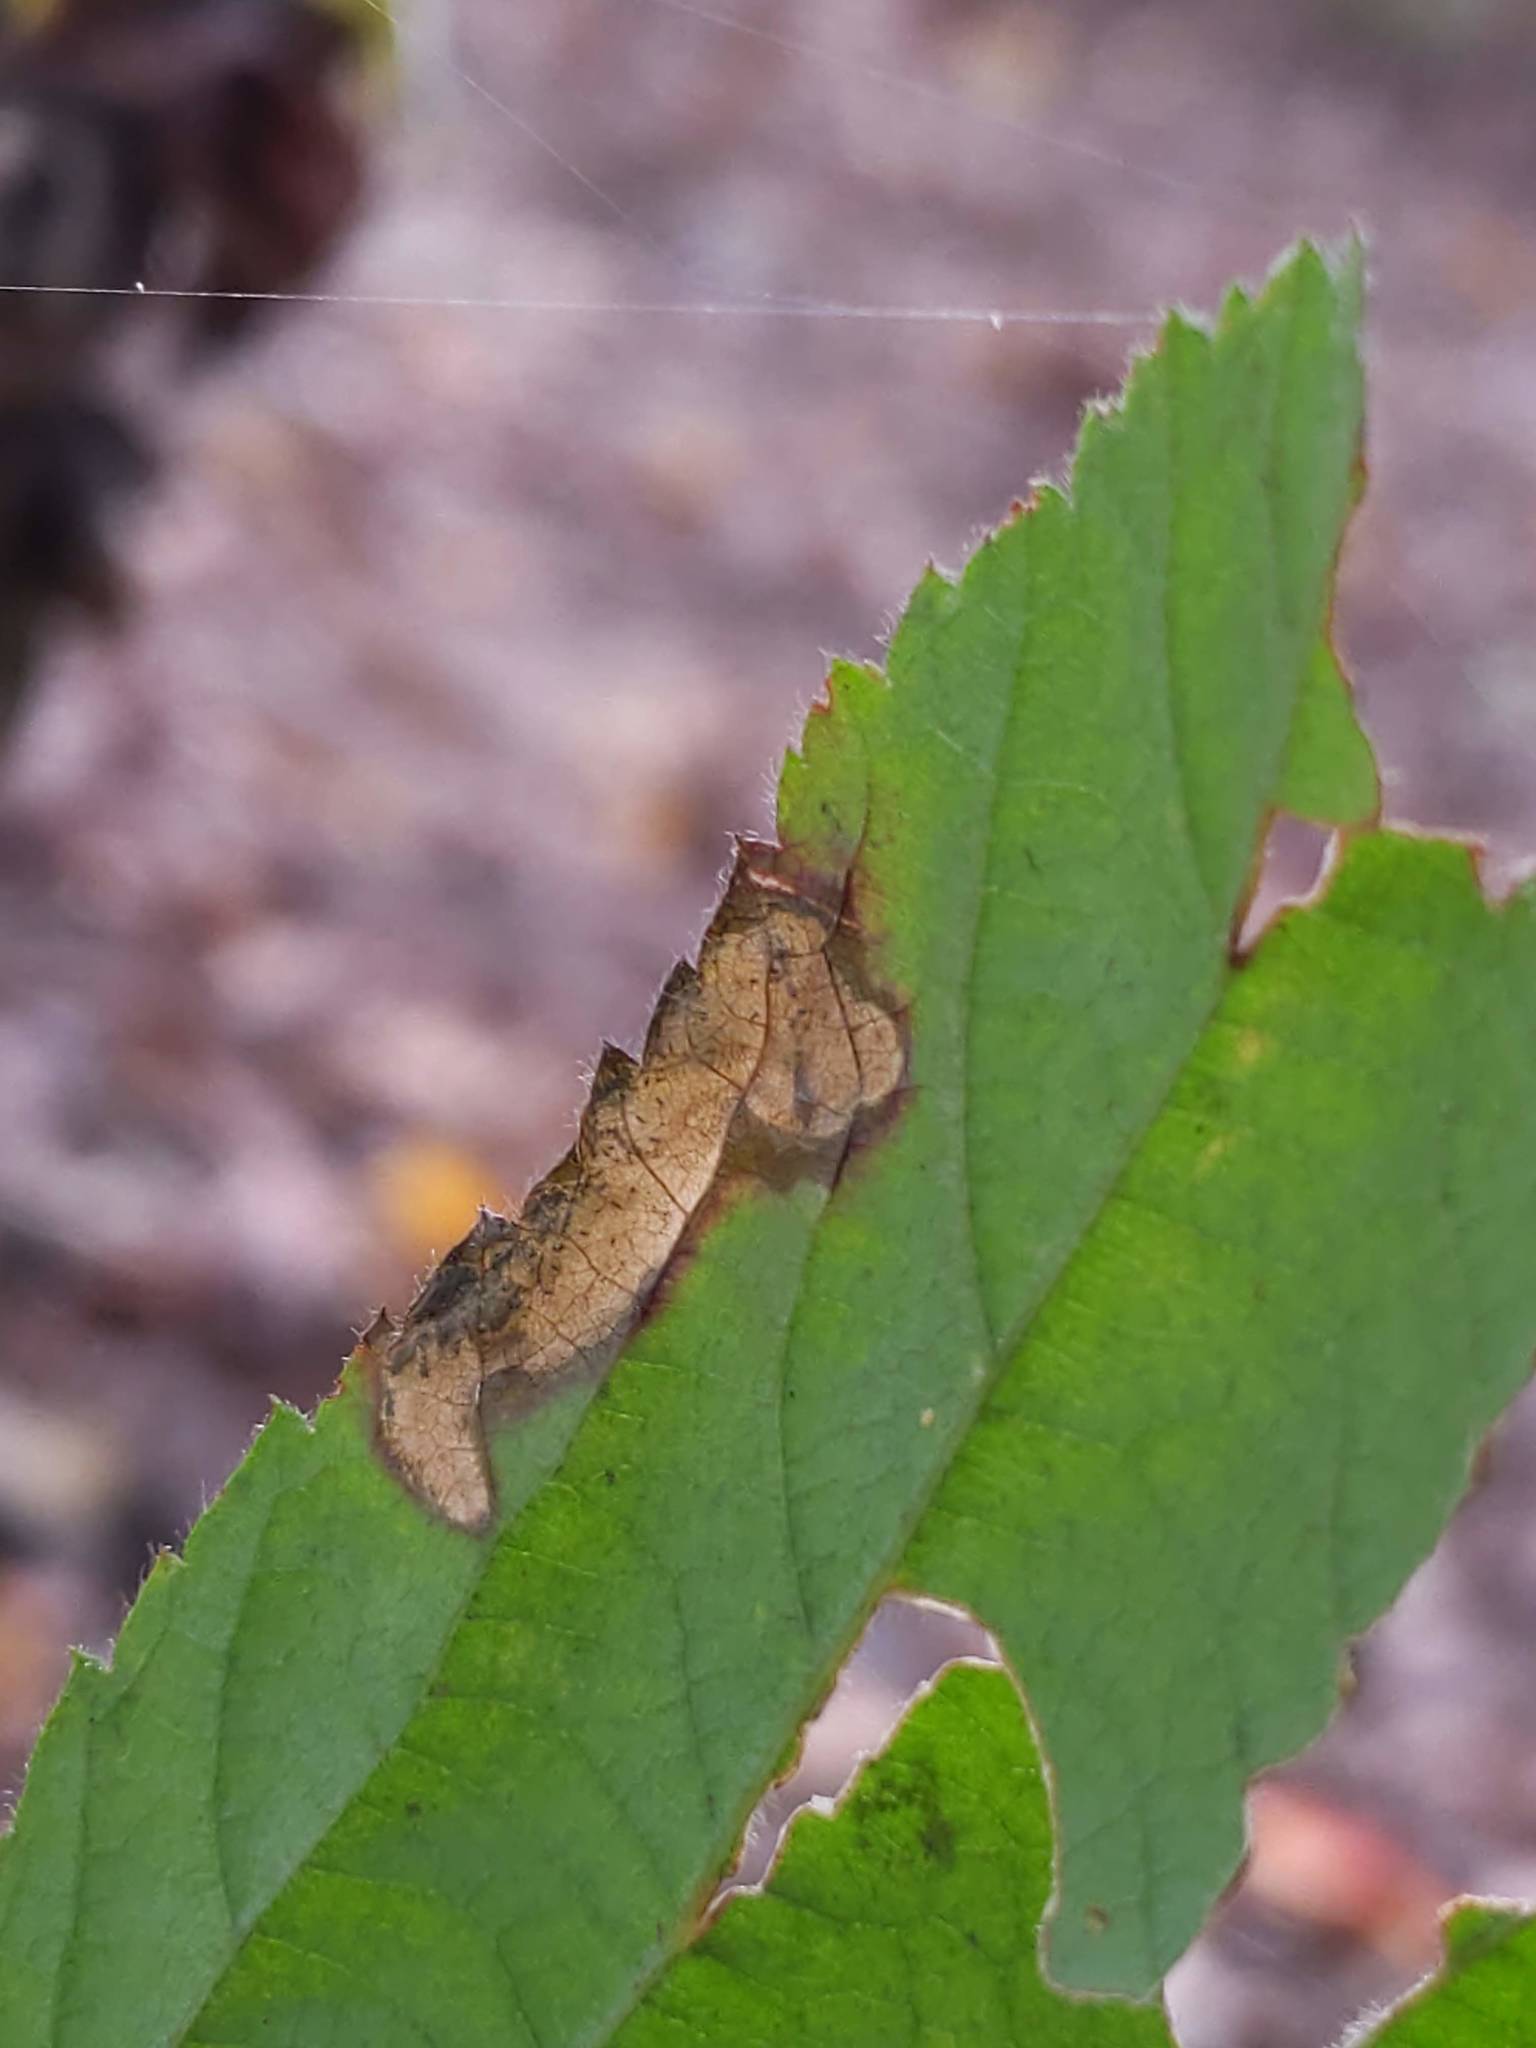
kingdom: Animalia
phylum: Arthropoda
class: Insecta
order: Hymenoptera
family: Tenthredinidae
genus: Metallus
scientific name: Metallus rohweri
